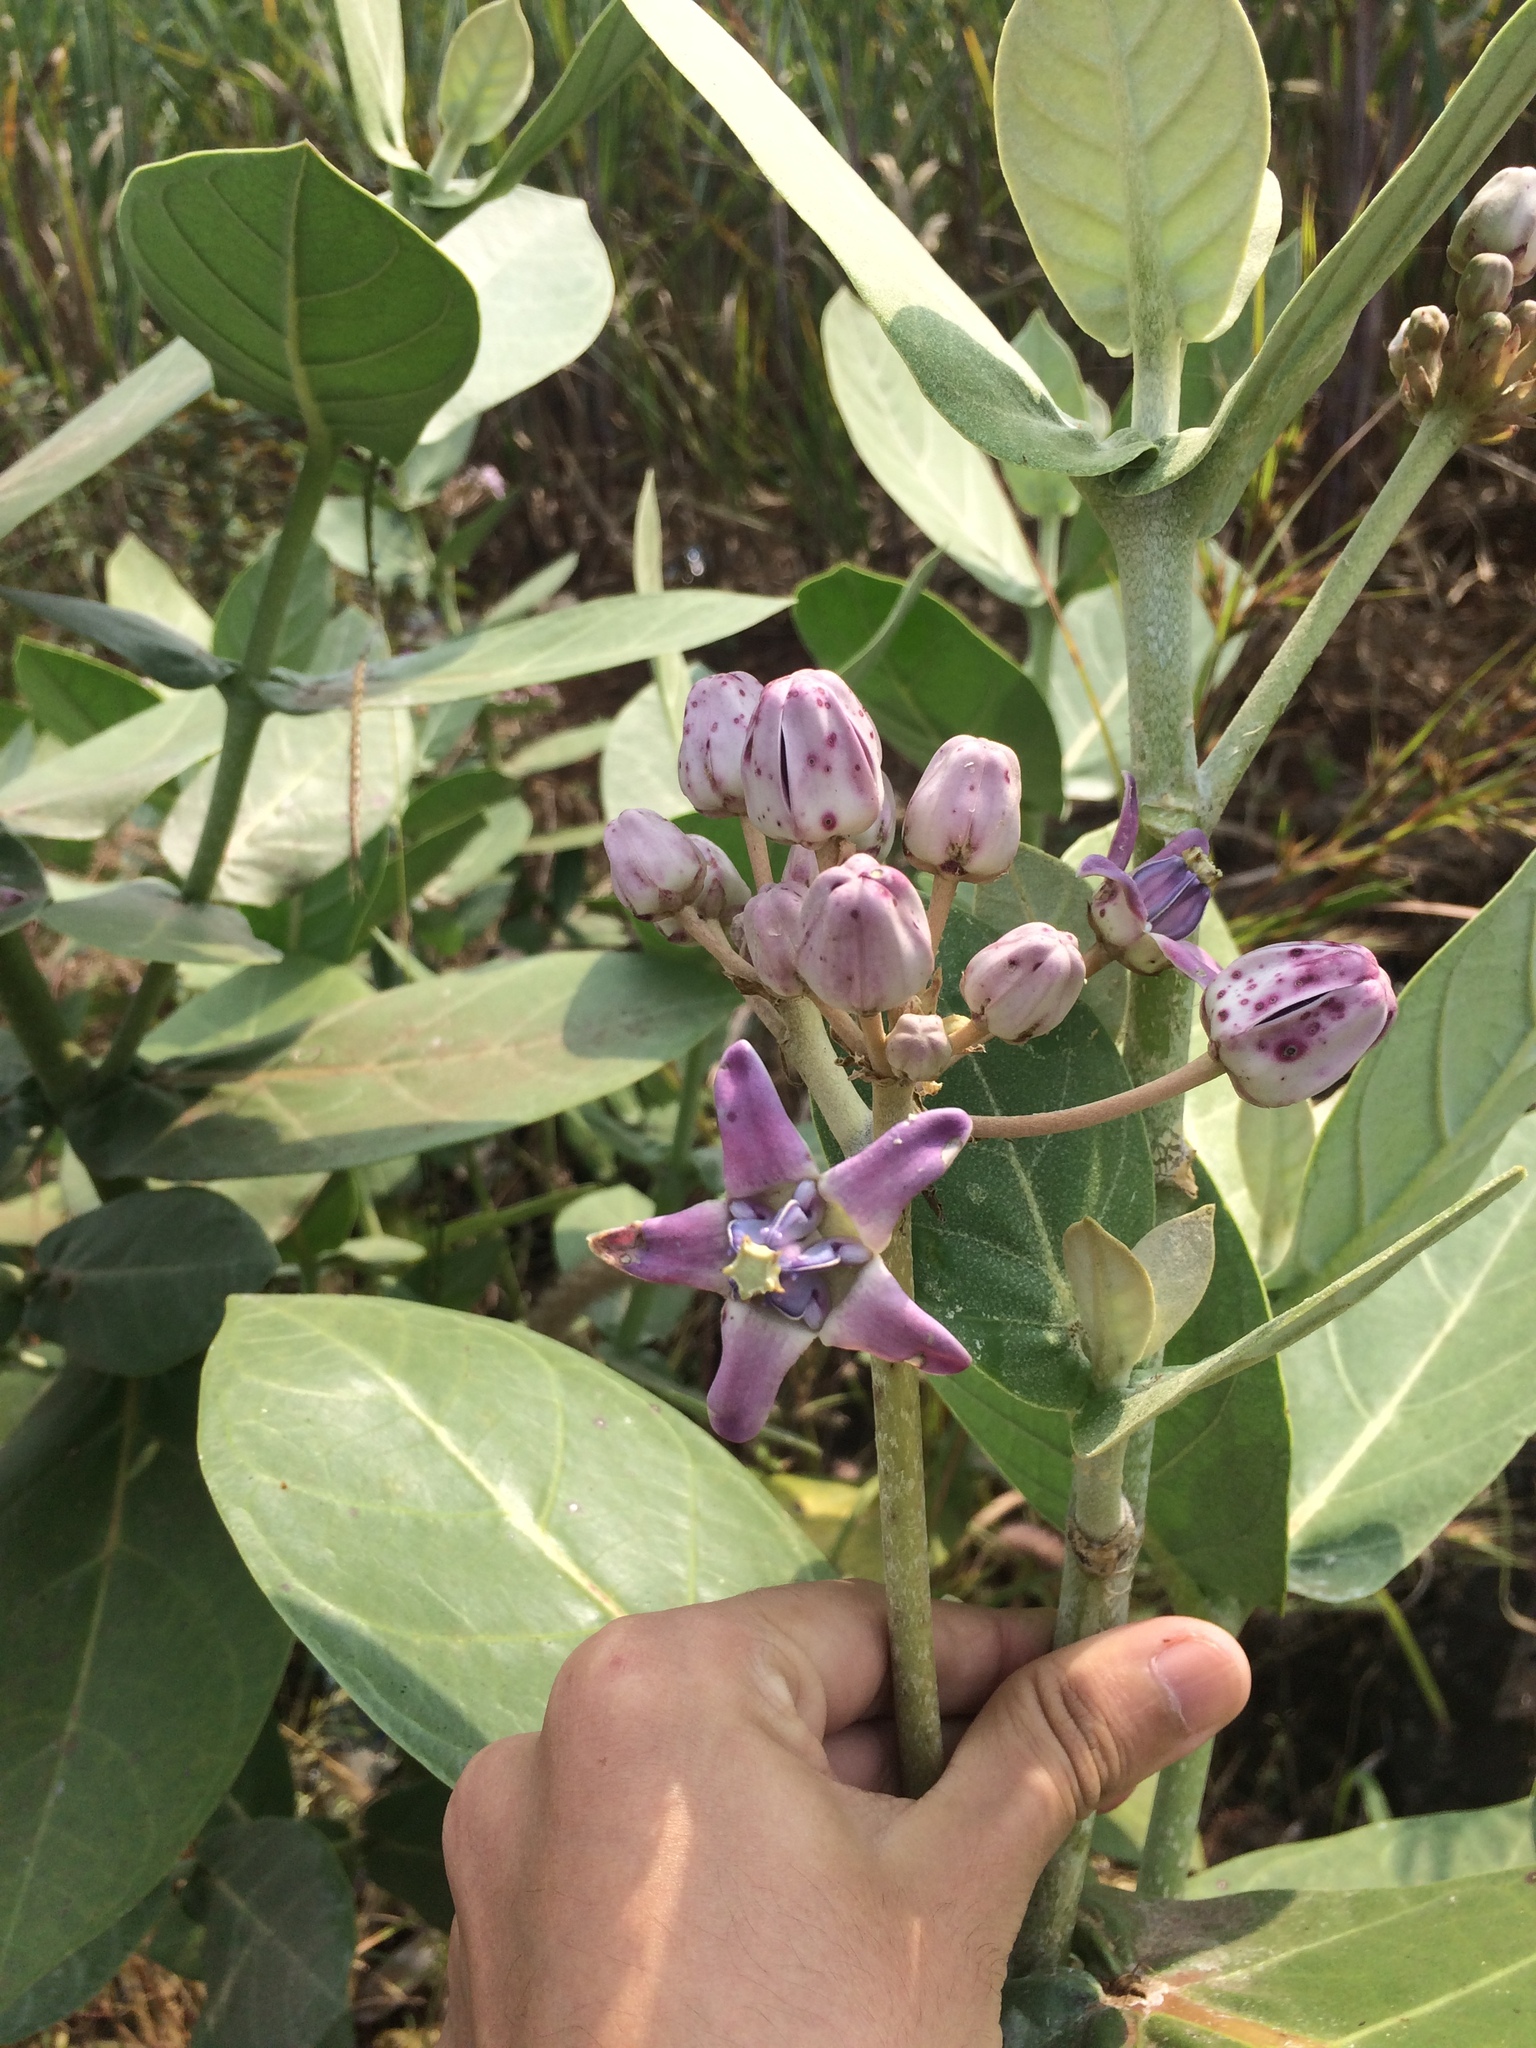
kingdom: Plantae
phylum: Tracheophyta
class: Magnoliopsida
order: Gentianales
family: Apocynaceae
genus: Calotropis
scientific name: Calotropis gigantea
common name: Crown flower
